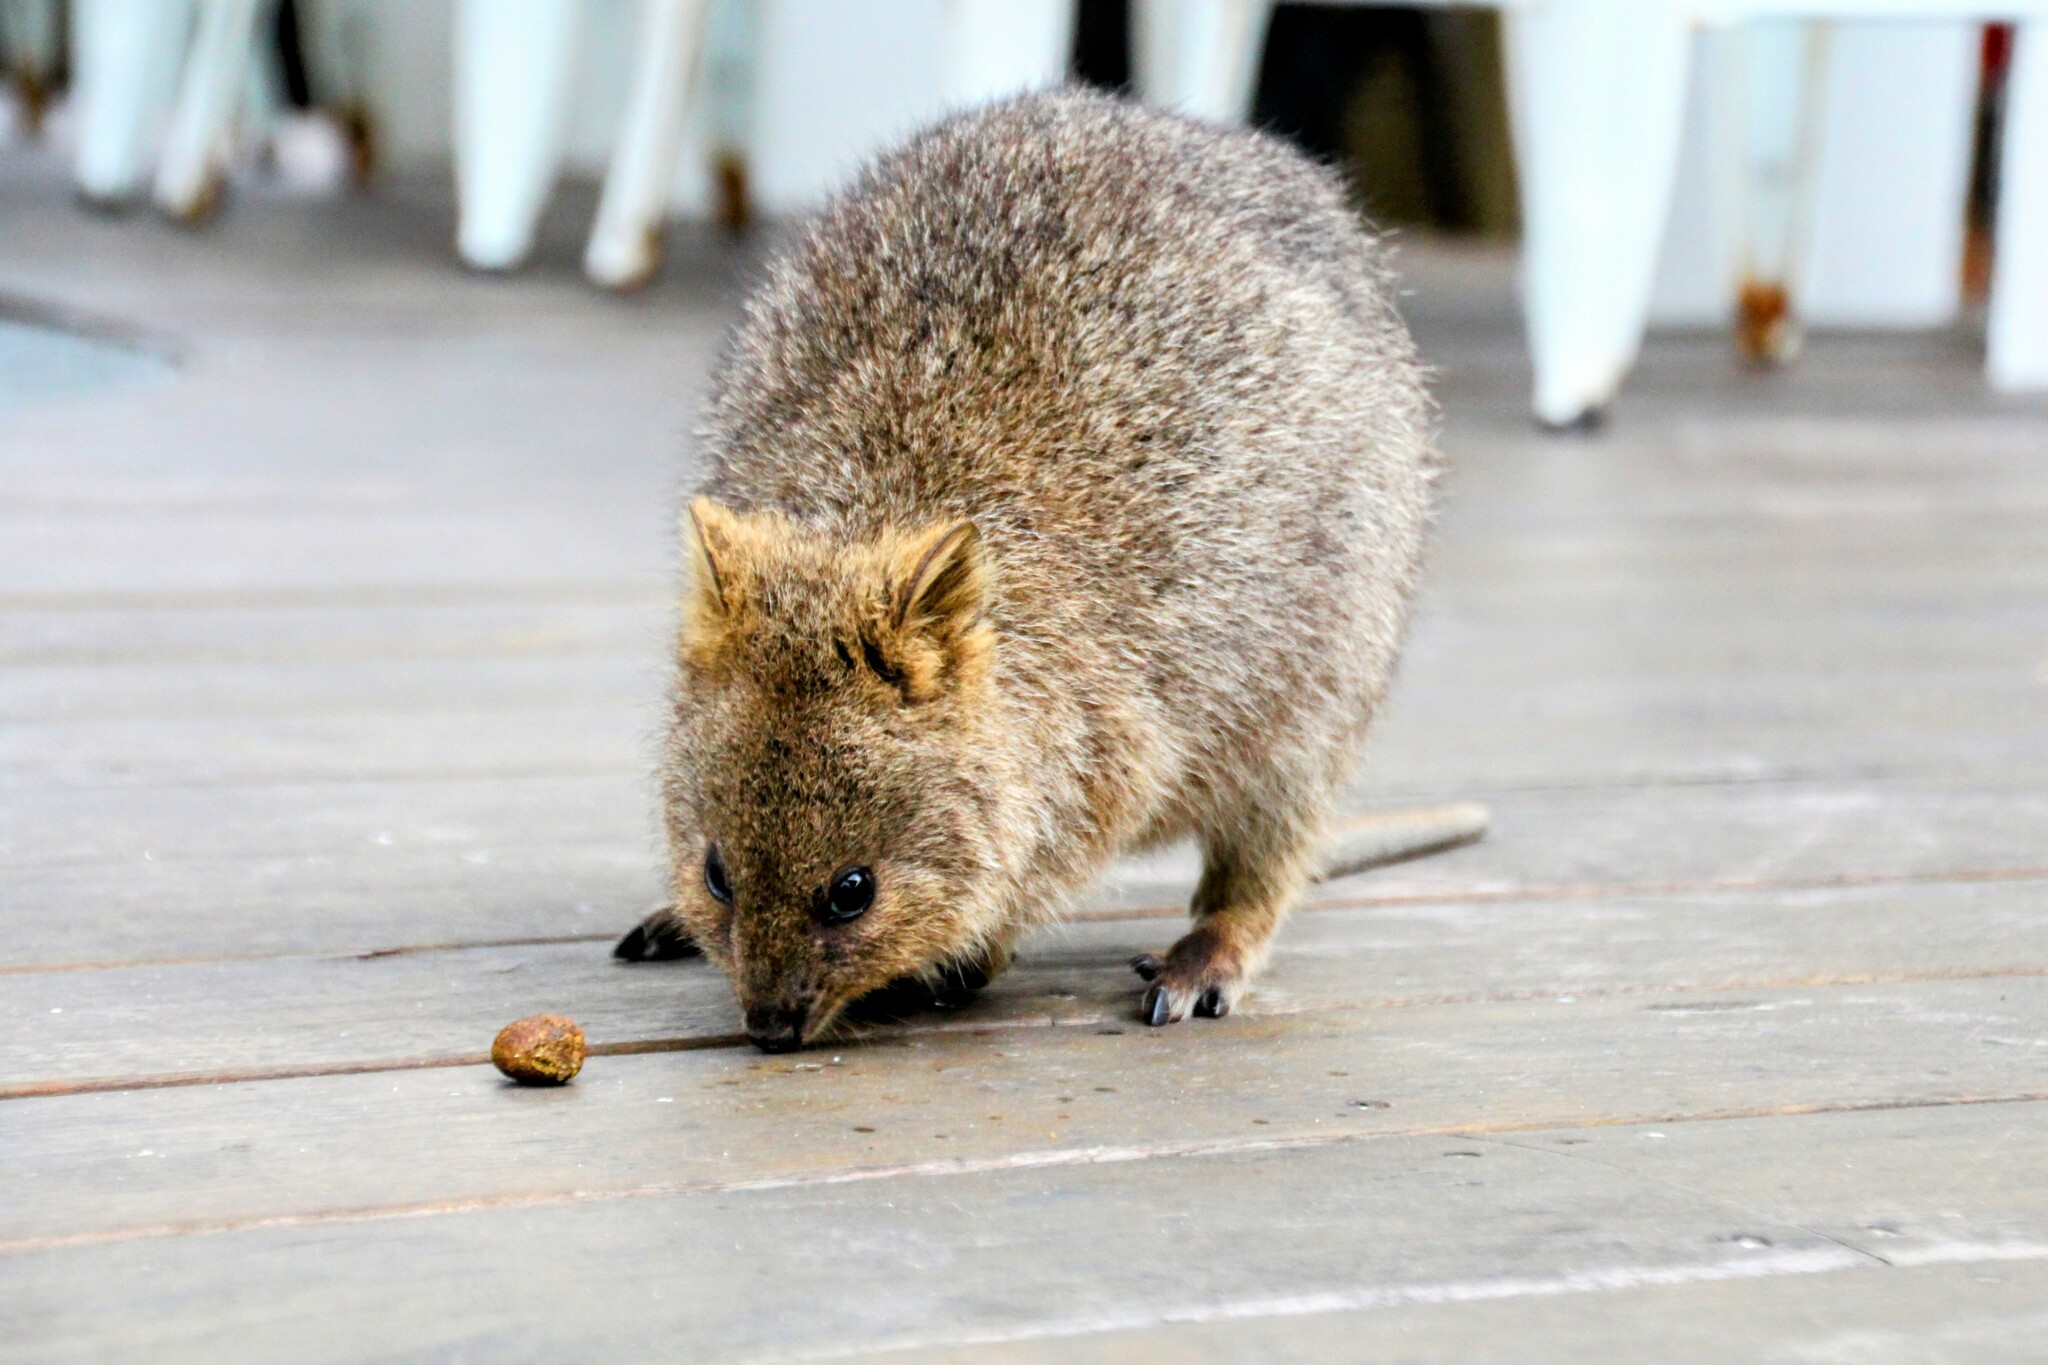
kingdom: Animalia
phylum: Chordata
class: Mammalia
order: Diprotodontia
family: Macropodidae
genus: Setonix
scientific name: Setonix brachyurus
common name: Quokka
